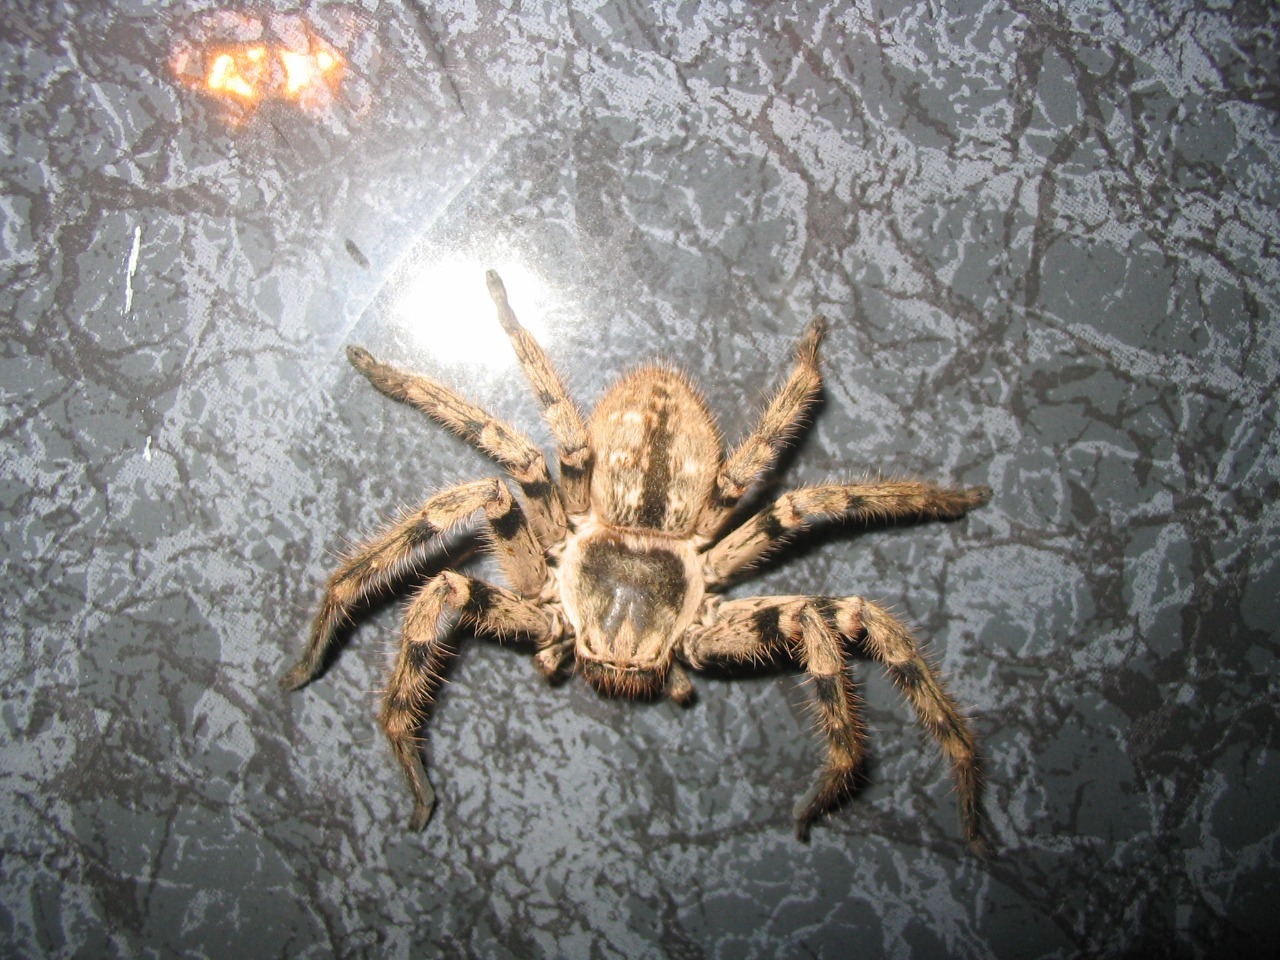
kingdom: Animalia
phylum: Arthropoda
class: Arachnida
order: Araneae
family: Sparassidae
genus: Polybetes
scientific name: Polybetes pythagoricus
